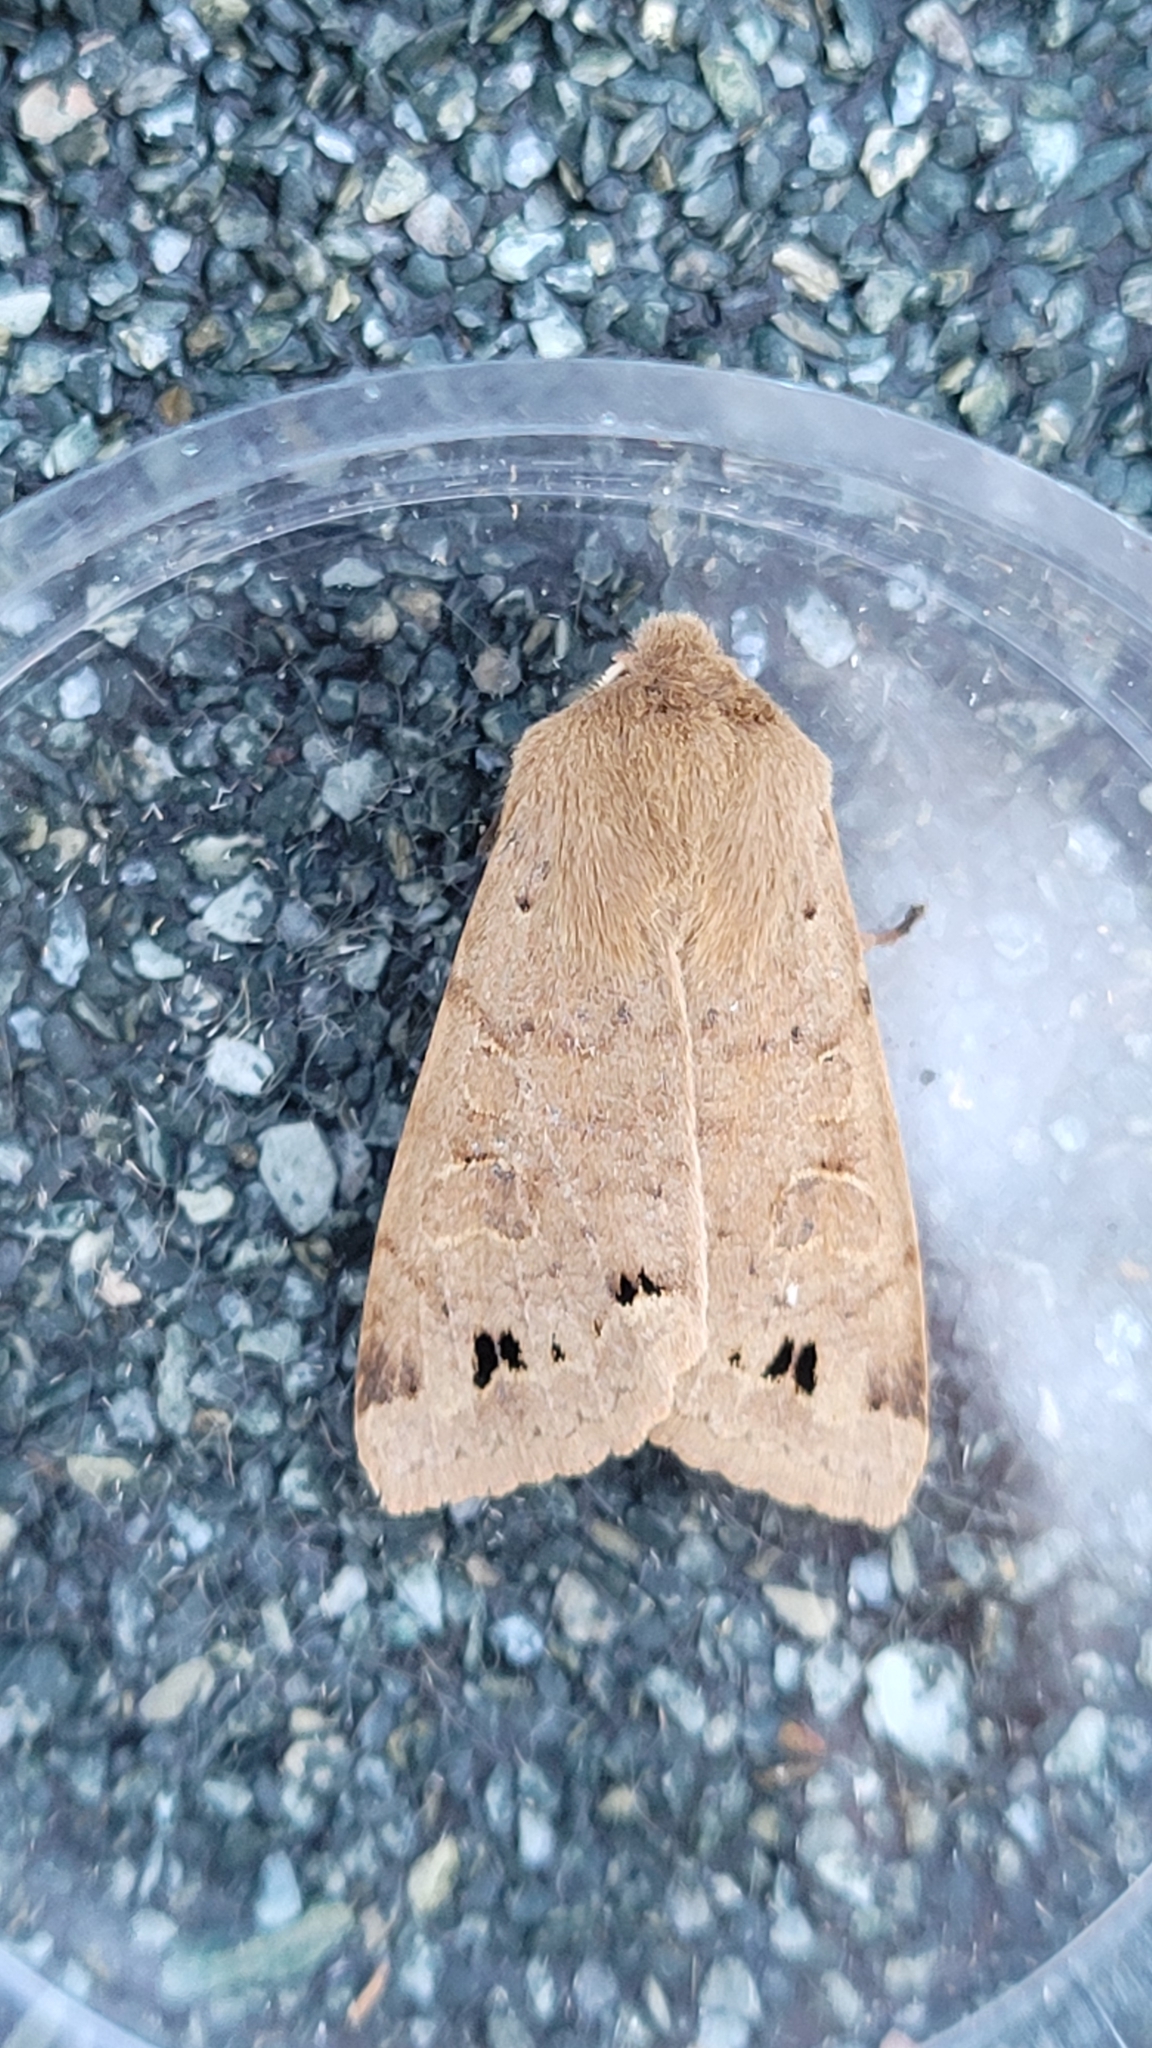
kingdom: Animalia
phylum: Arthropoda
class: Insecta
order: Lepidoptera
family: Noctuidae
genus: Anorthoa
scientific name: Anorthoa munda
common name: Twin-spotted quaker
